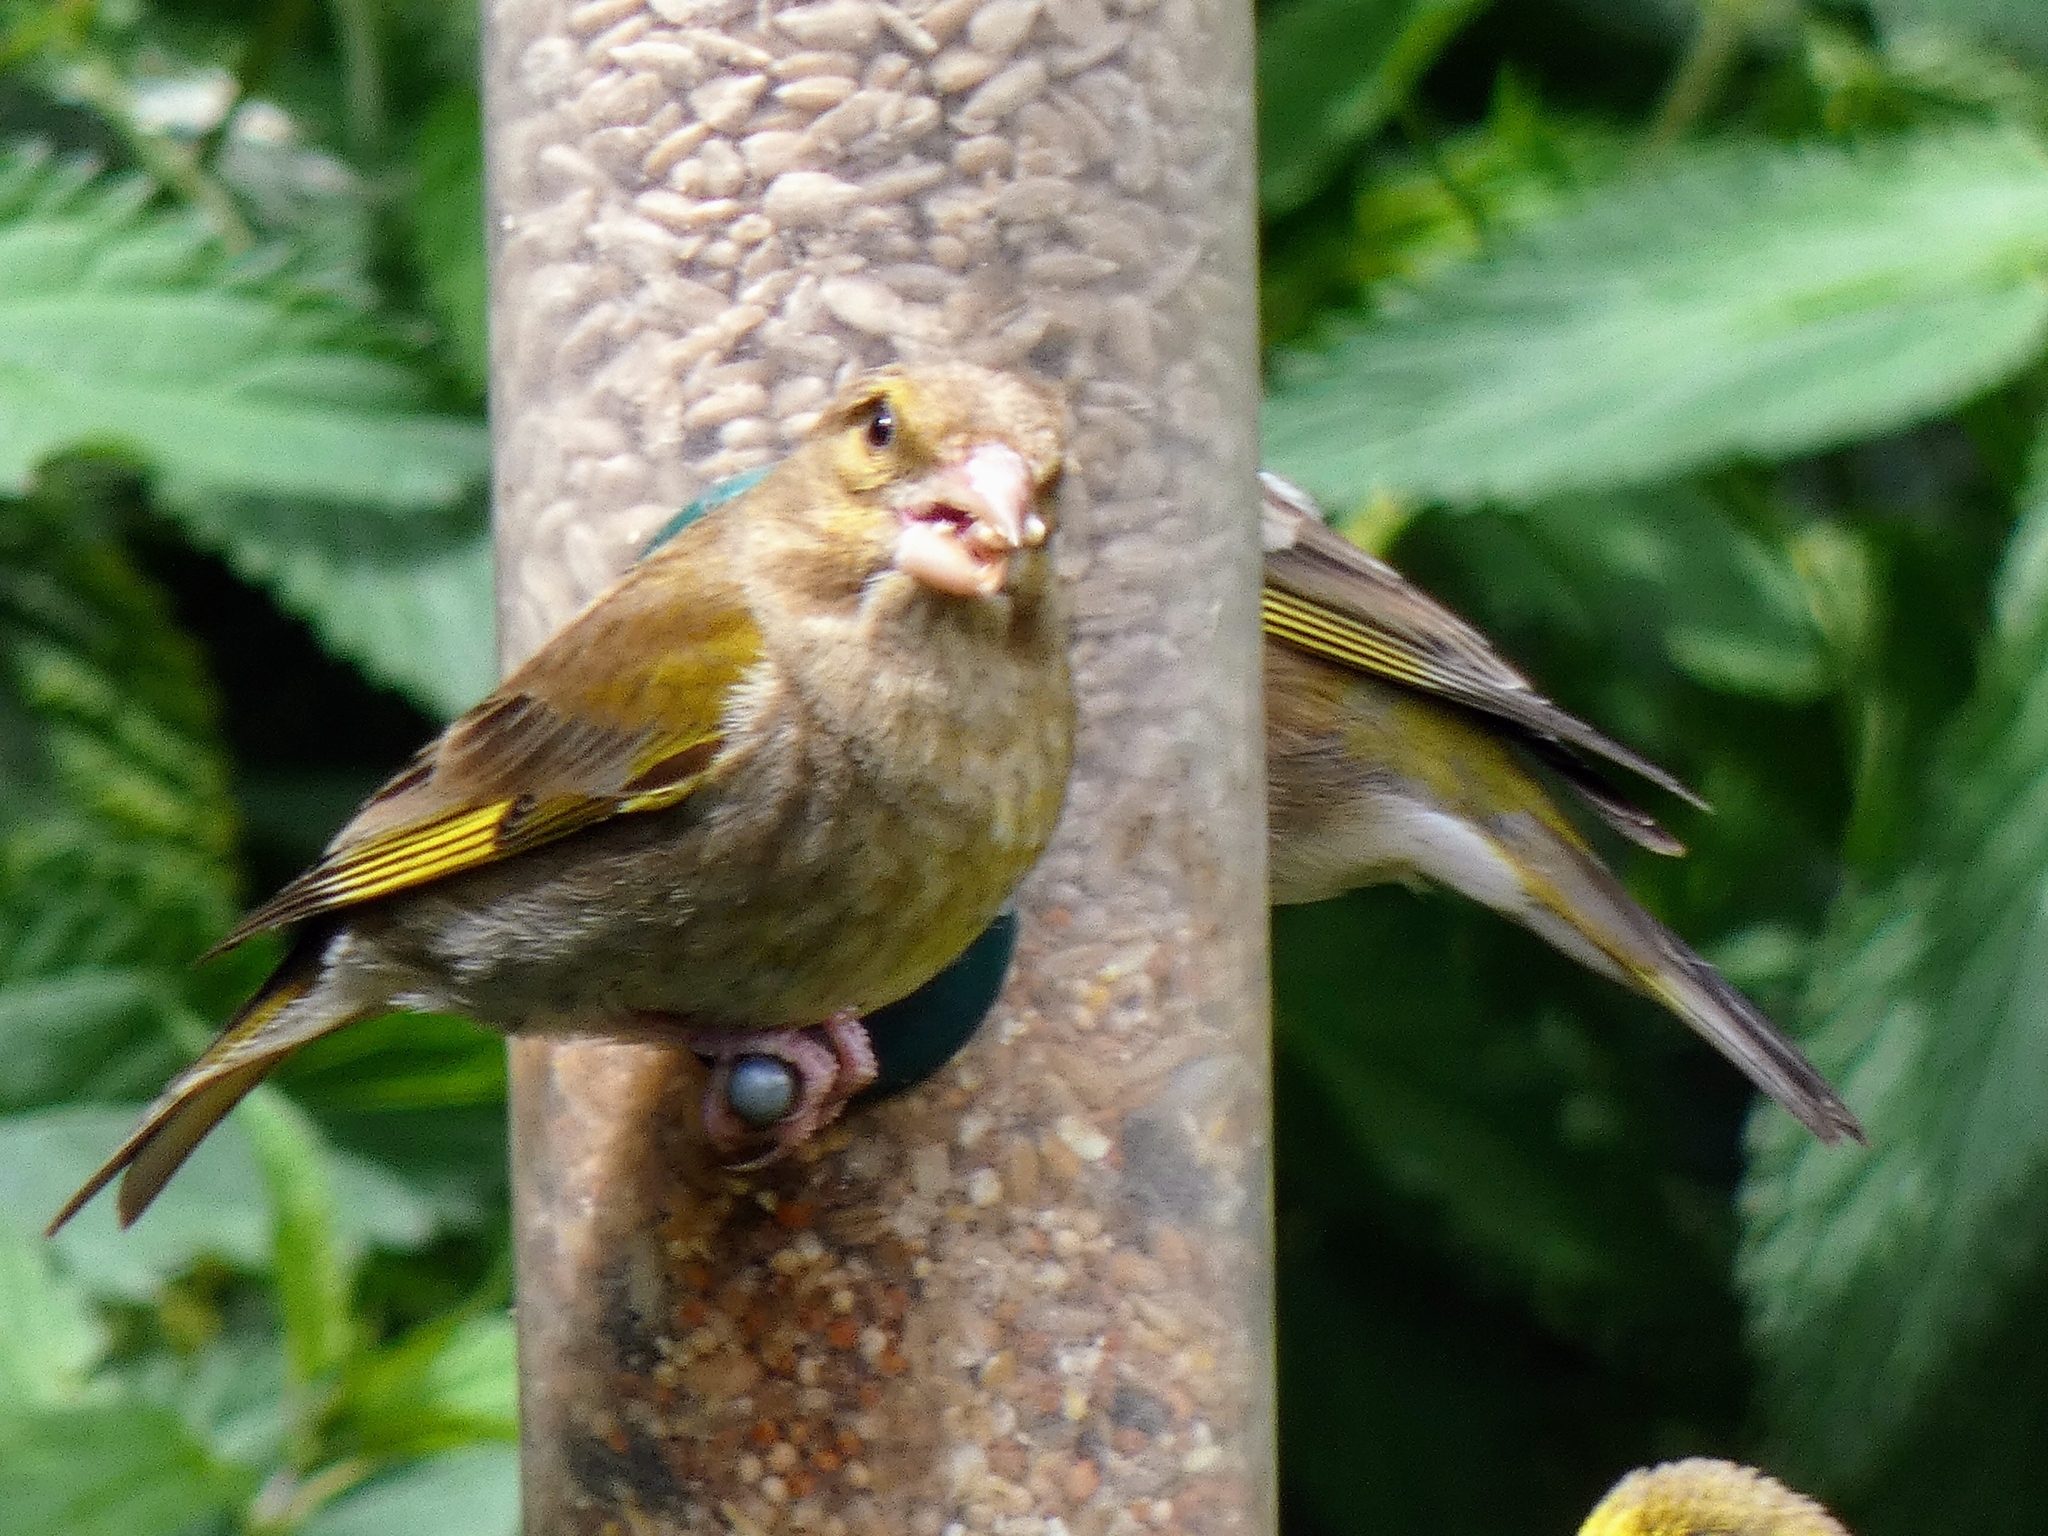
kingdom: Plantae
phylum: Tracheophyta
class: Liliopsida
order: Poales
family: Poaceae
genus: Chloris
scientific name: Chloris chloris
